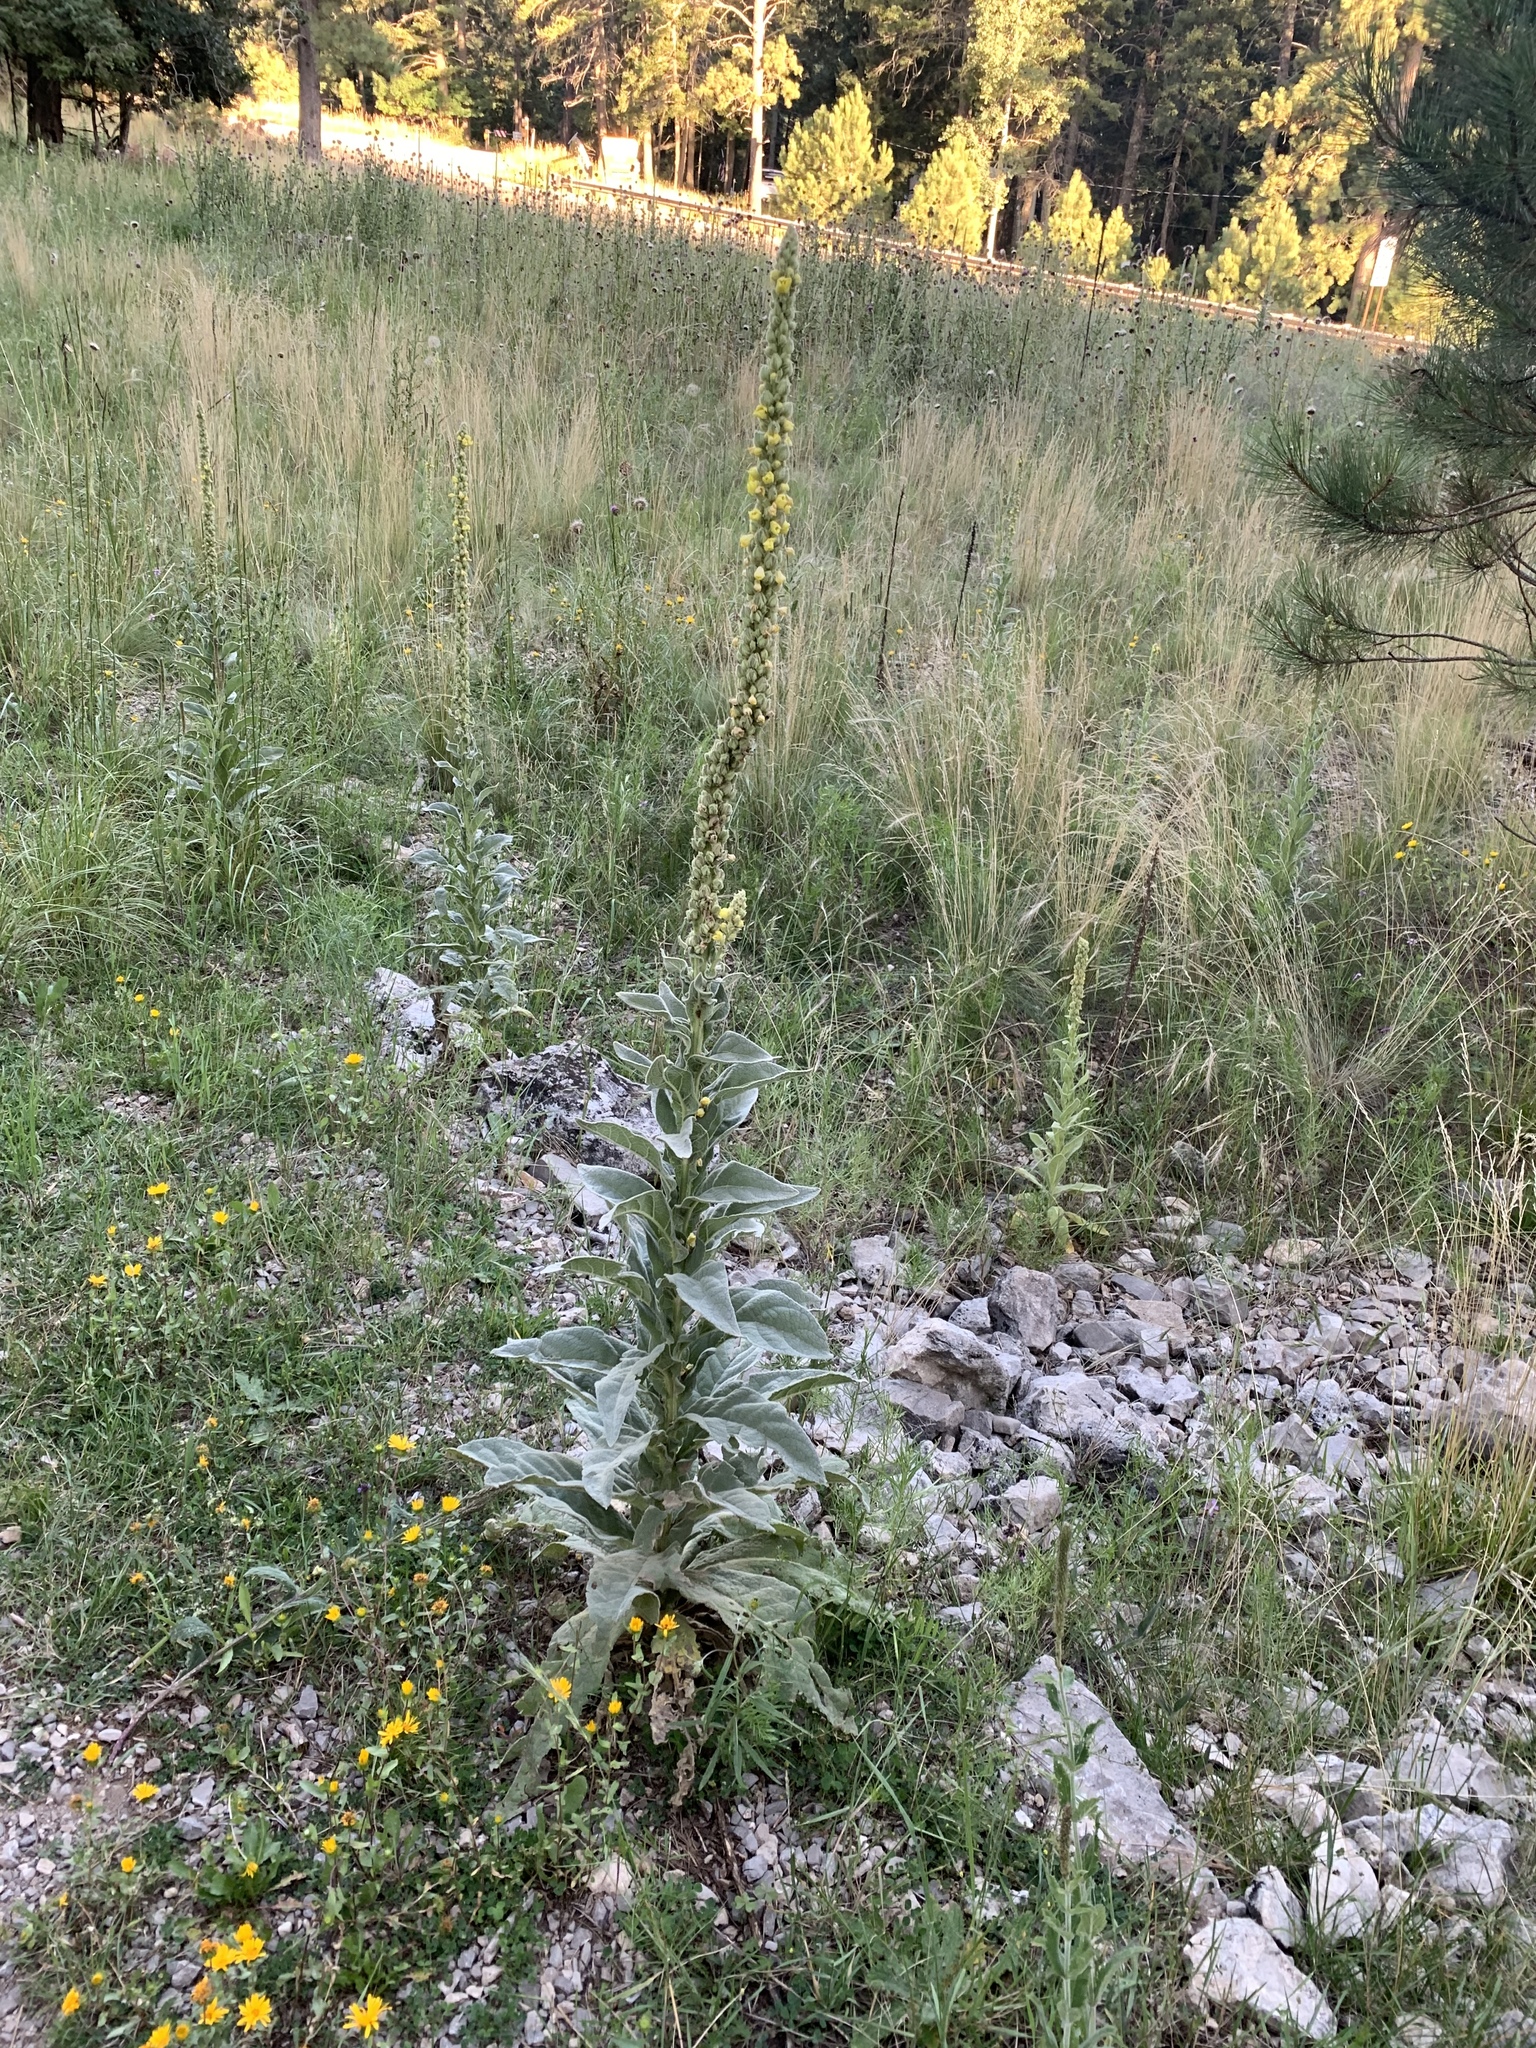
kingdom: Plantae
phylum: Tracheophyta
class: Magnoliopsida
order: Lamiales
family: Scrophulariaceae
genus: Verbascum
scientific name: Verbascum thapsus
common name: Common mullein
